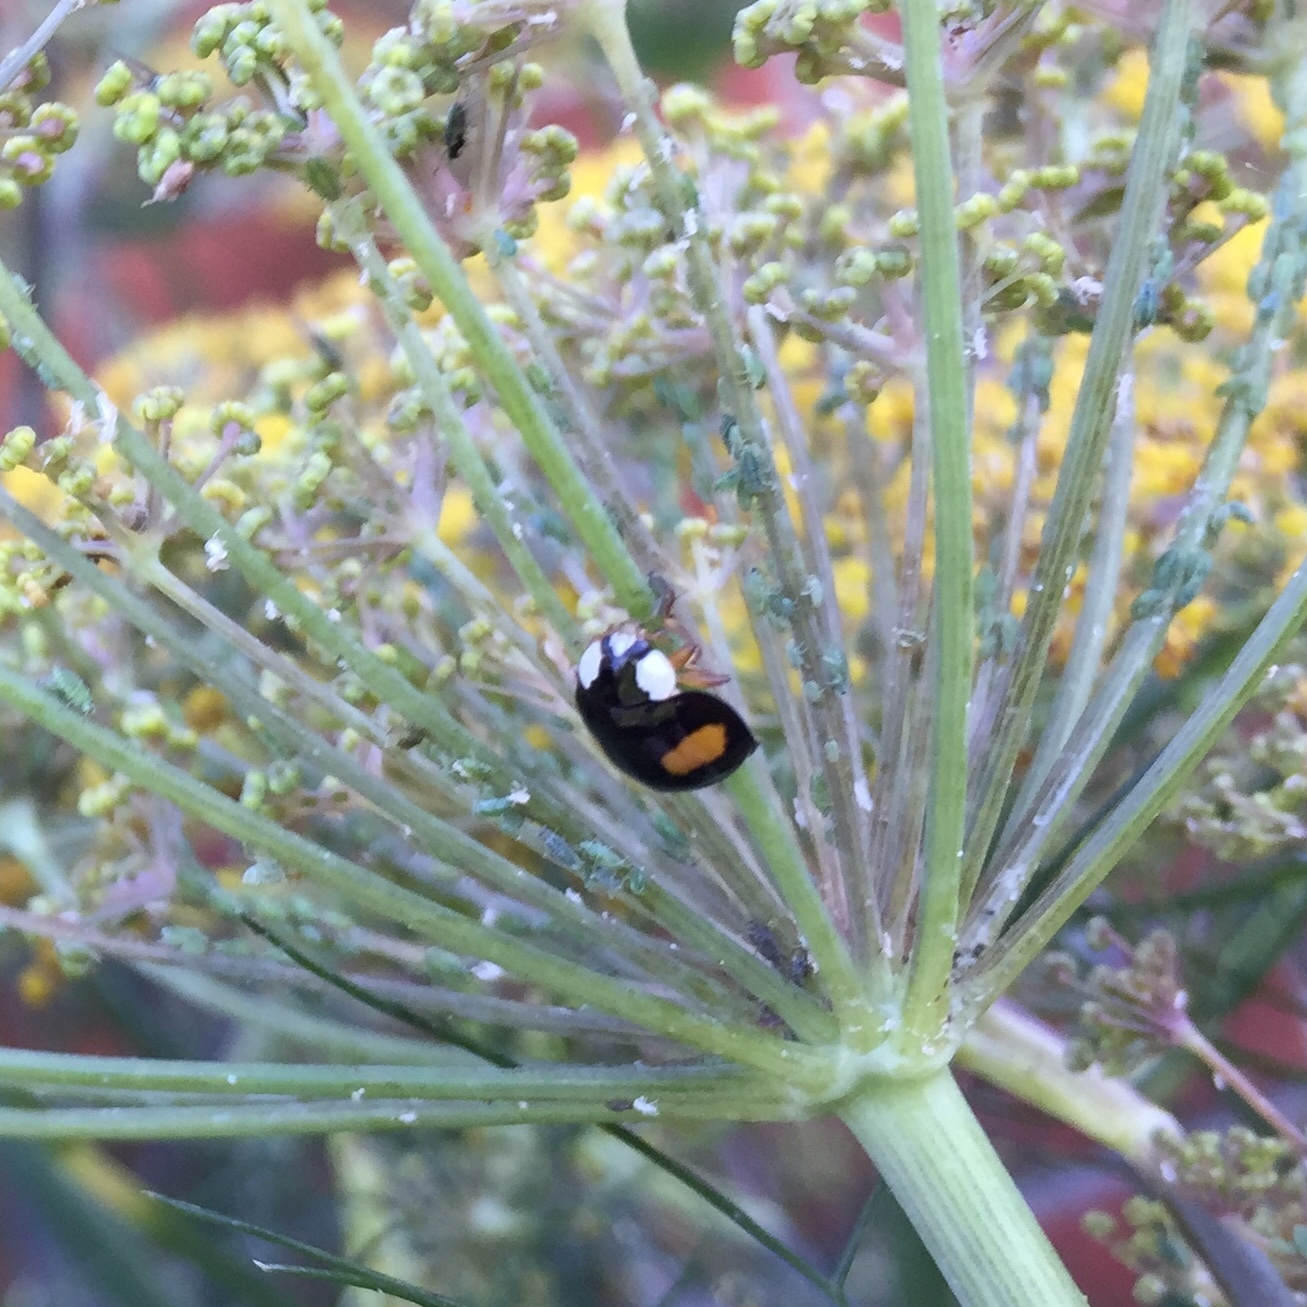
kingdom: Animalia
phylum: Arthropoda
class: Insecta
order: Coleoptera
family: Coccinellidae
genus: Harmonia
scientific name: Harmonia axyridis
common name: Harlequin ladybird
